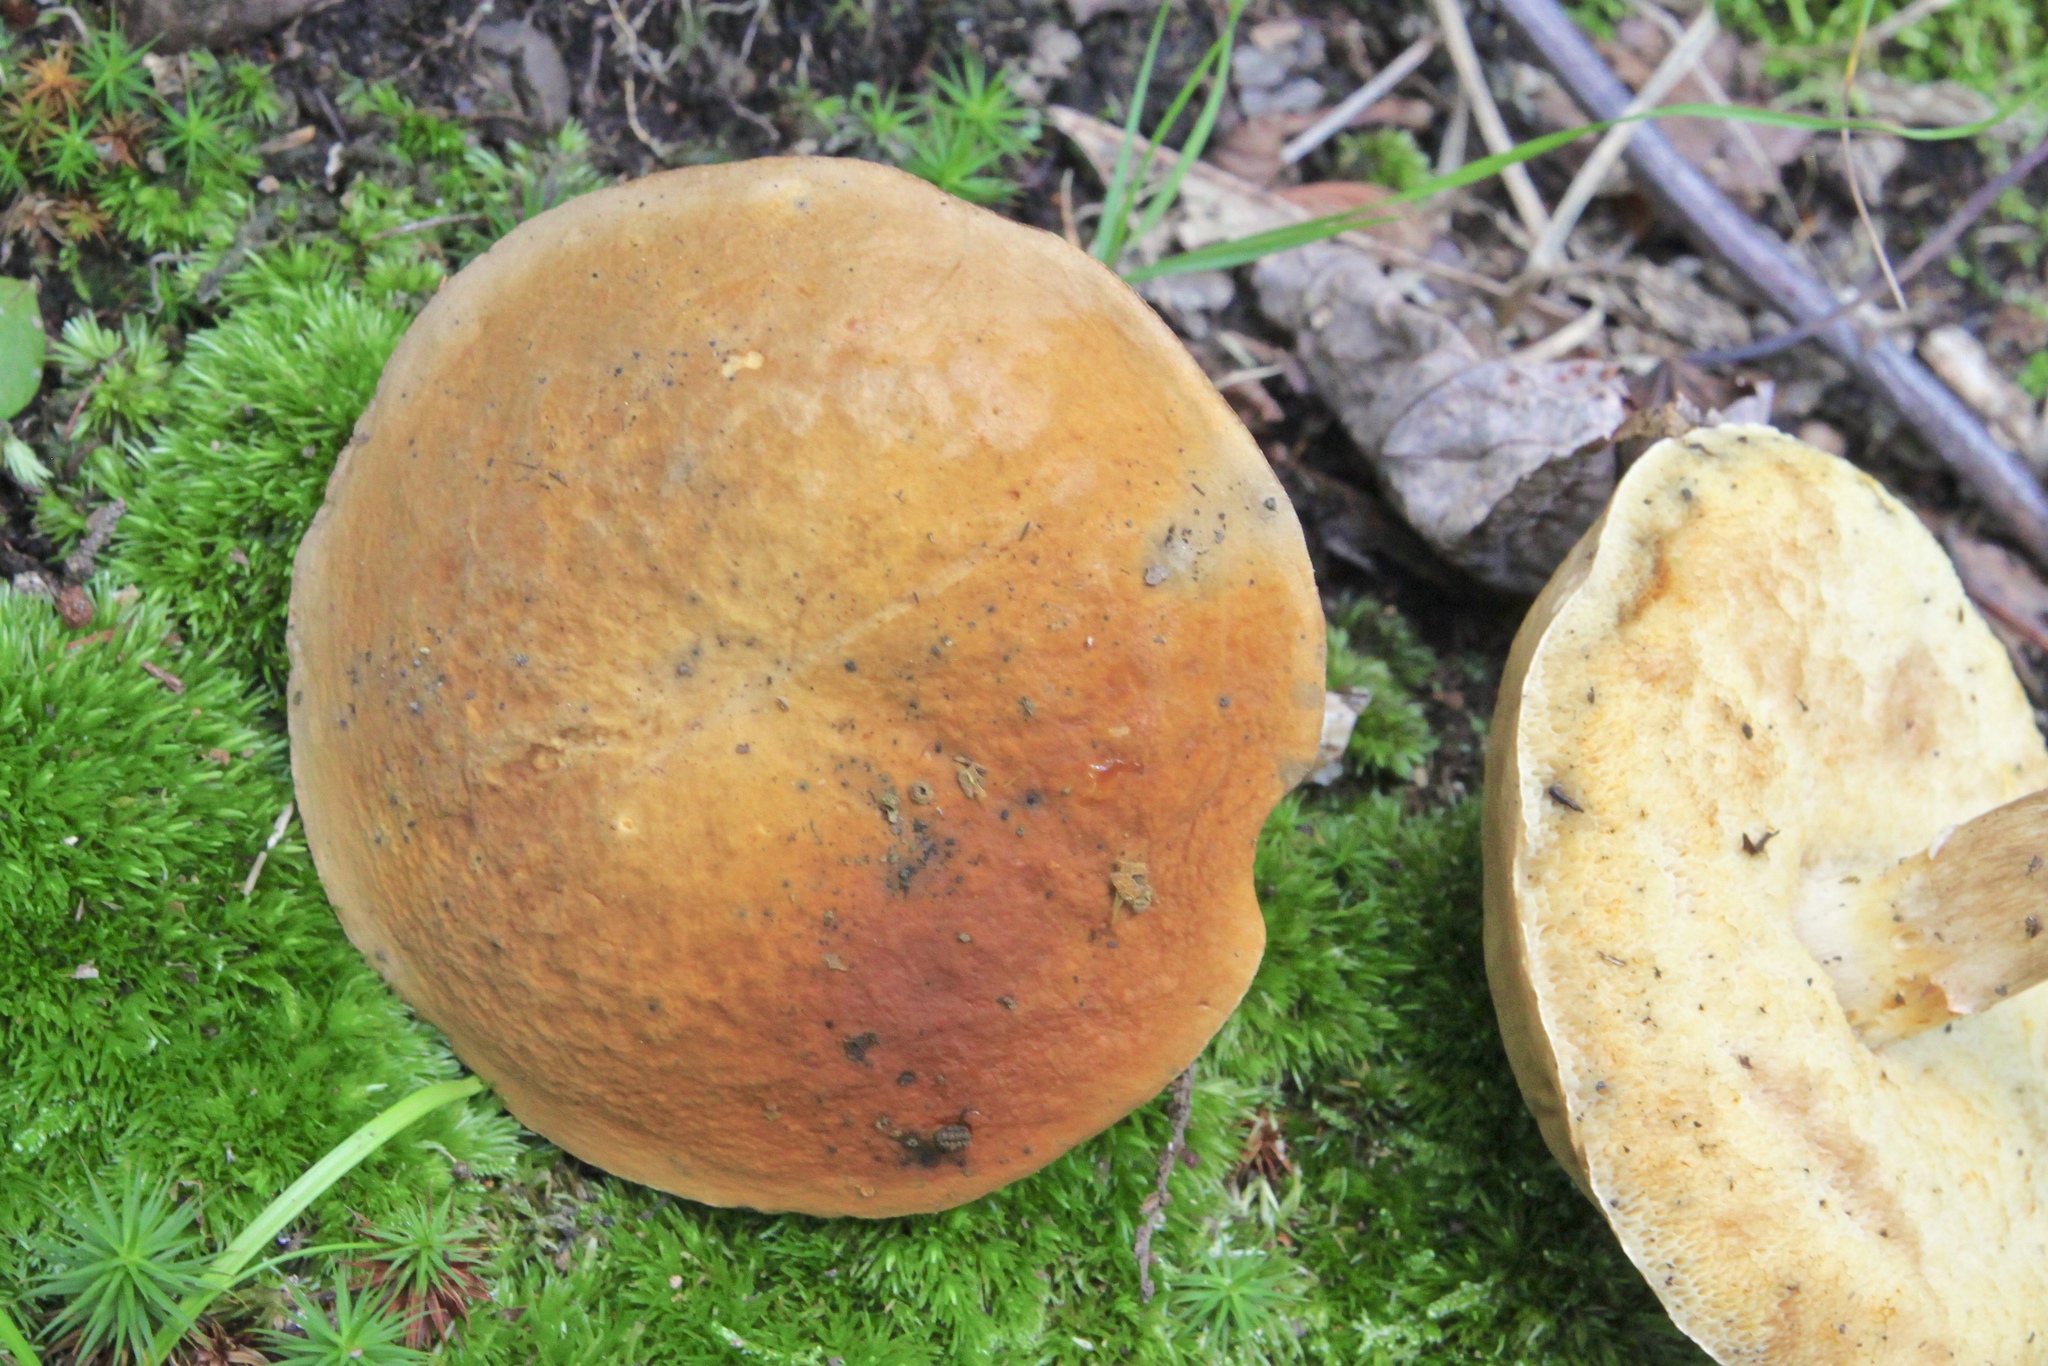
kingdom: Fungi
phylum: Basidiomycota
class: Agaricomycetes
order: Boletales
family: Gyroporaceae
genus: Gyroporus
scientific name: Gyroporus castaneus
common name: Chestnut bolete
